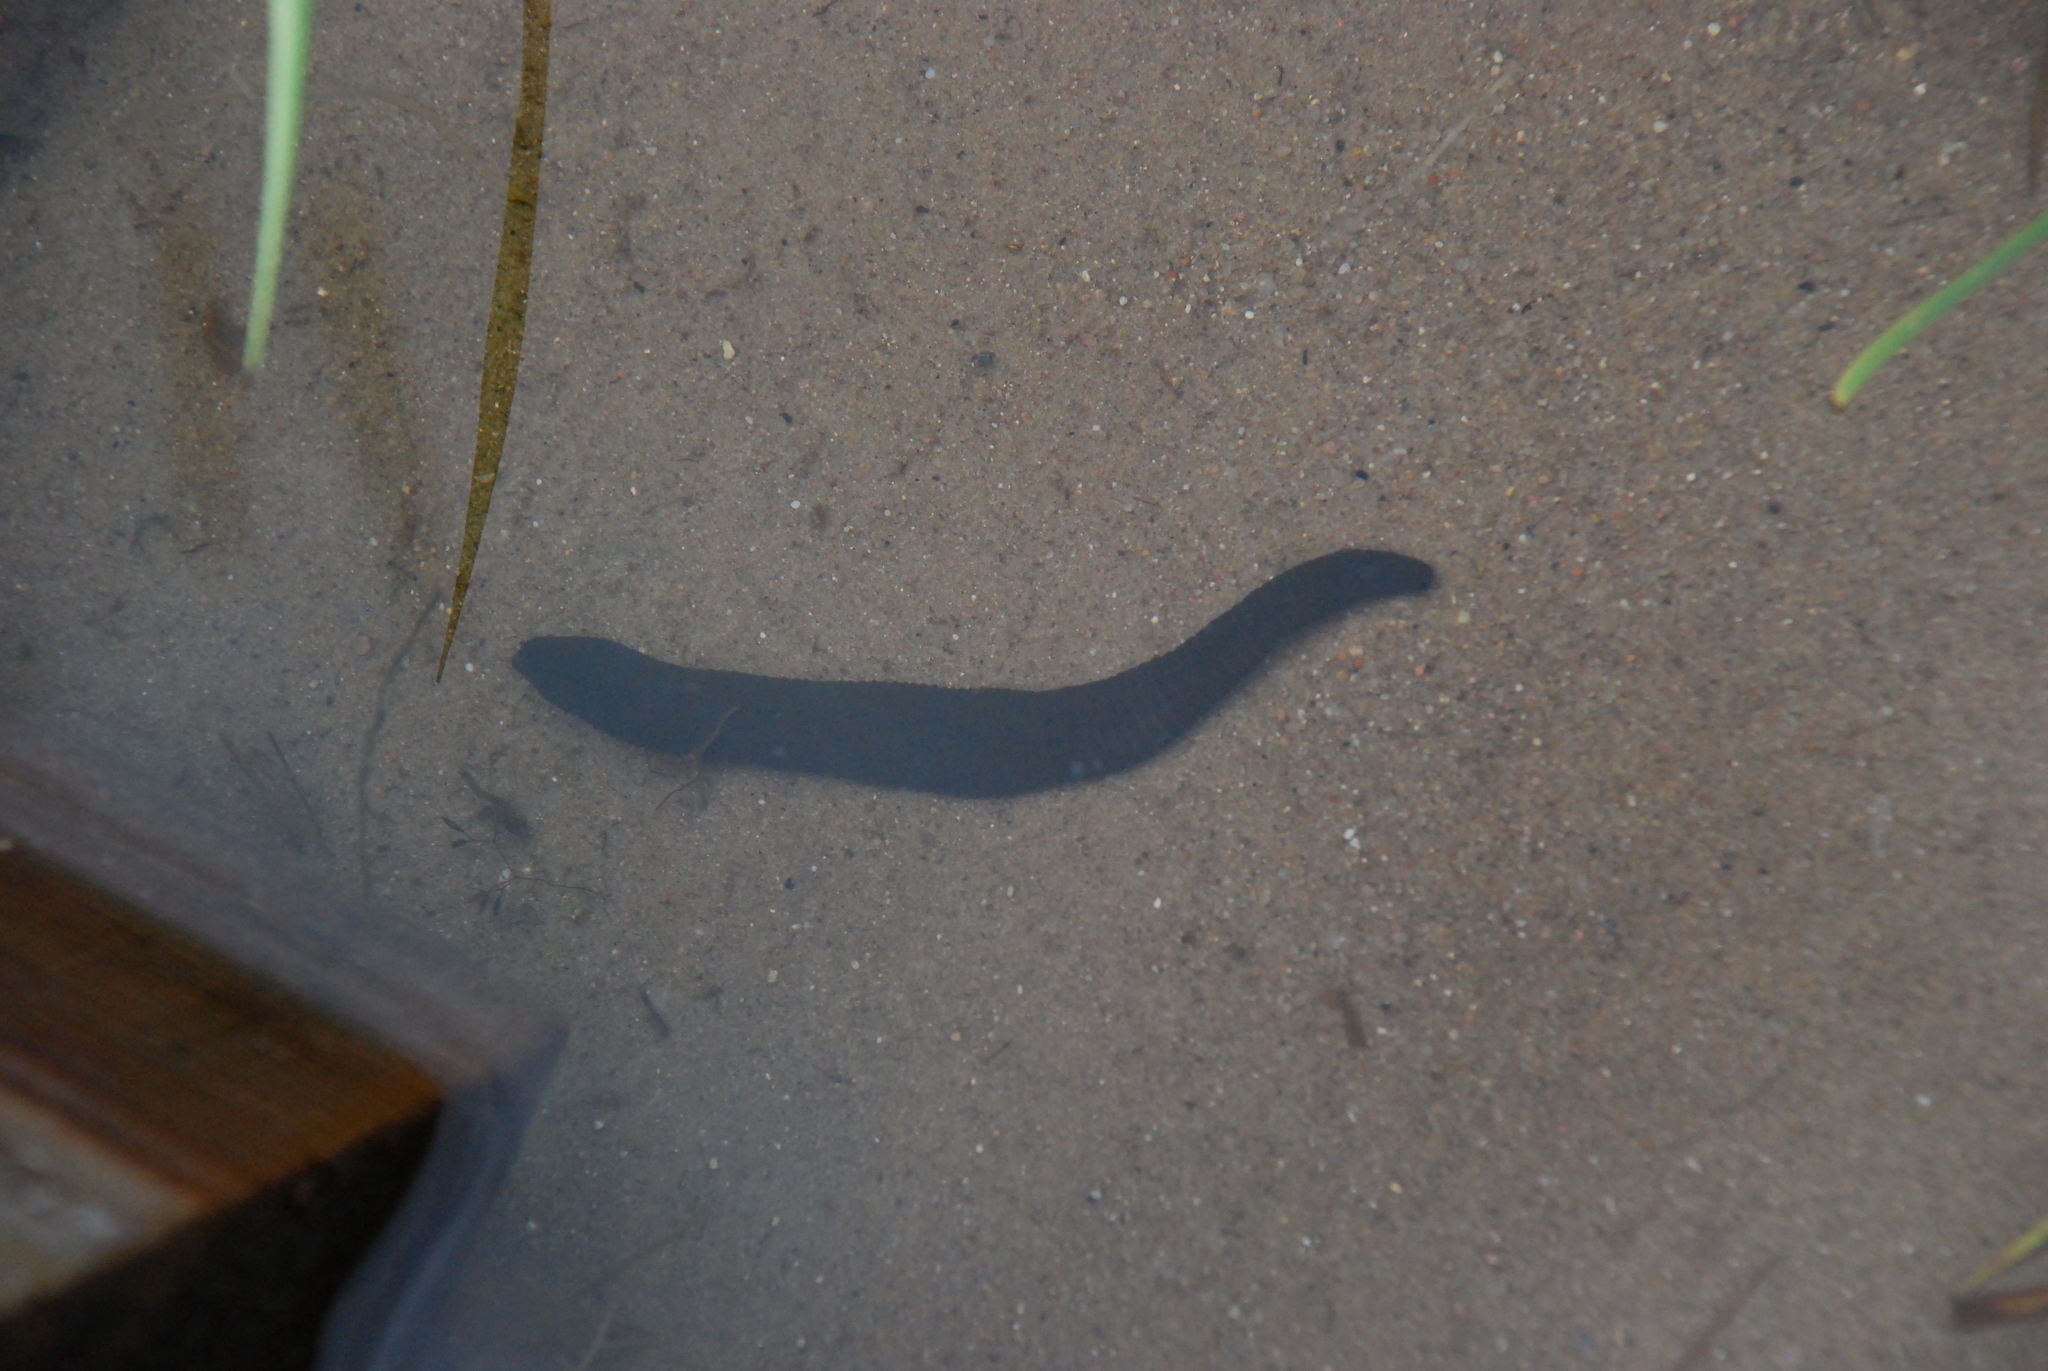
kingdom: Animalia
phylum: Annelida
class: Clitellata
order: Arhynchobdellida
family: Haemopidae
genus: Haemopis
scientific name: Haemopis sanguisuga
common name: Horse leech
